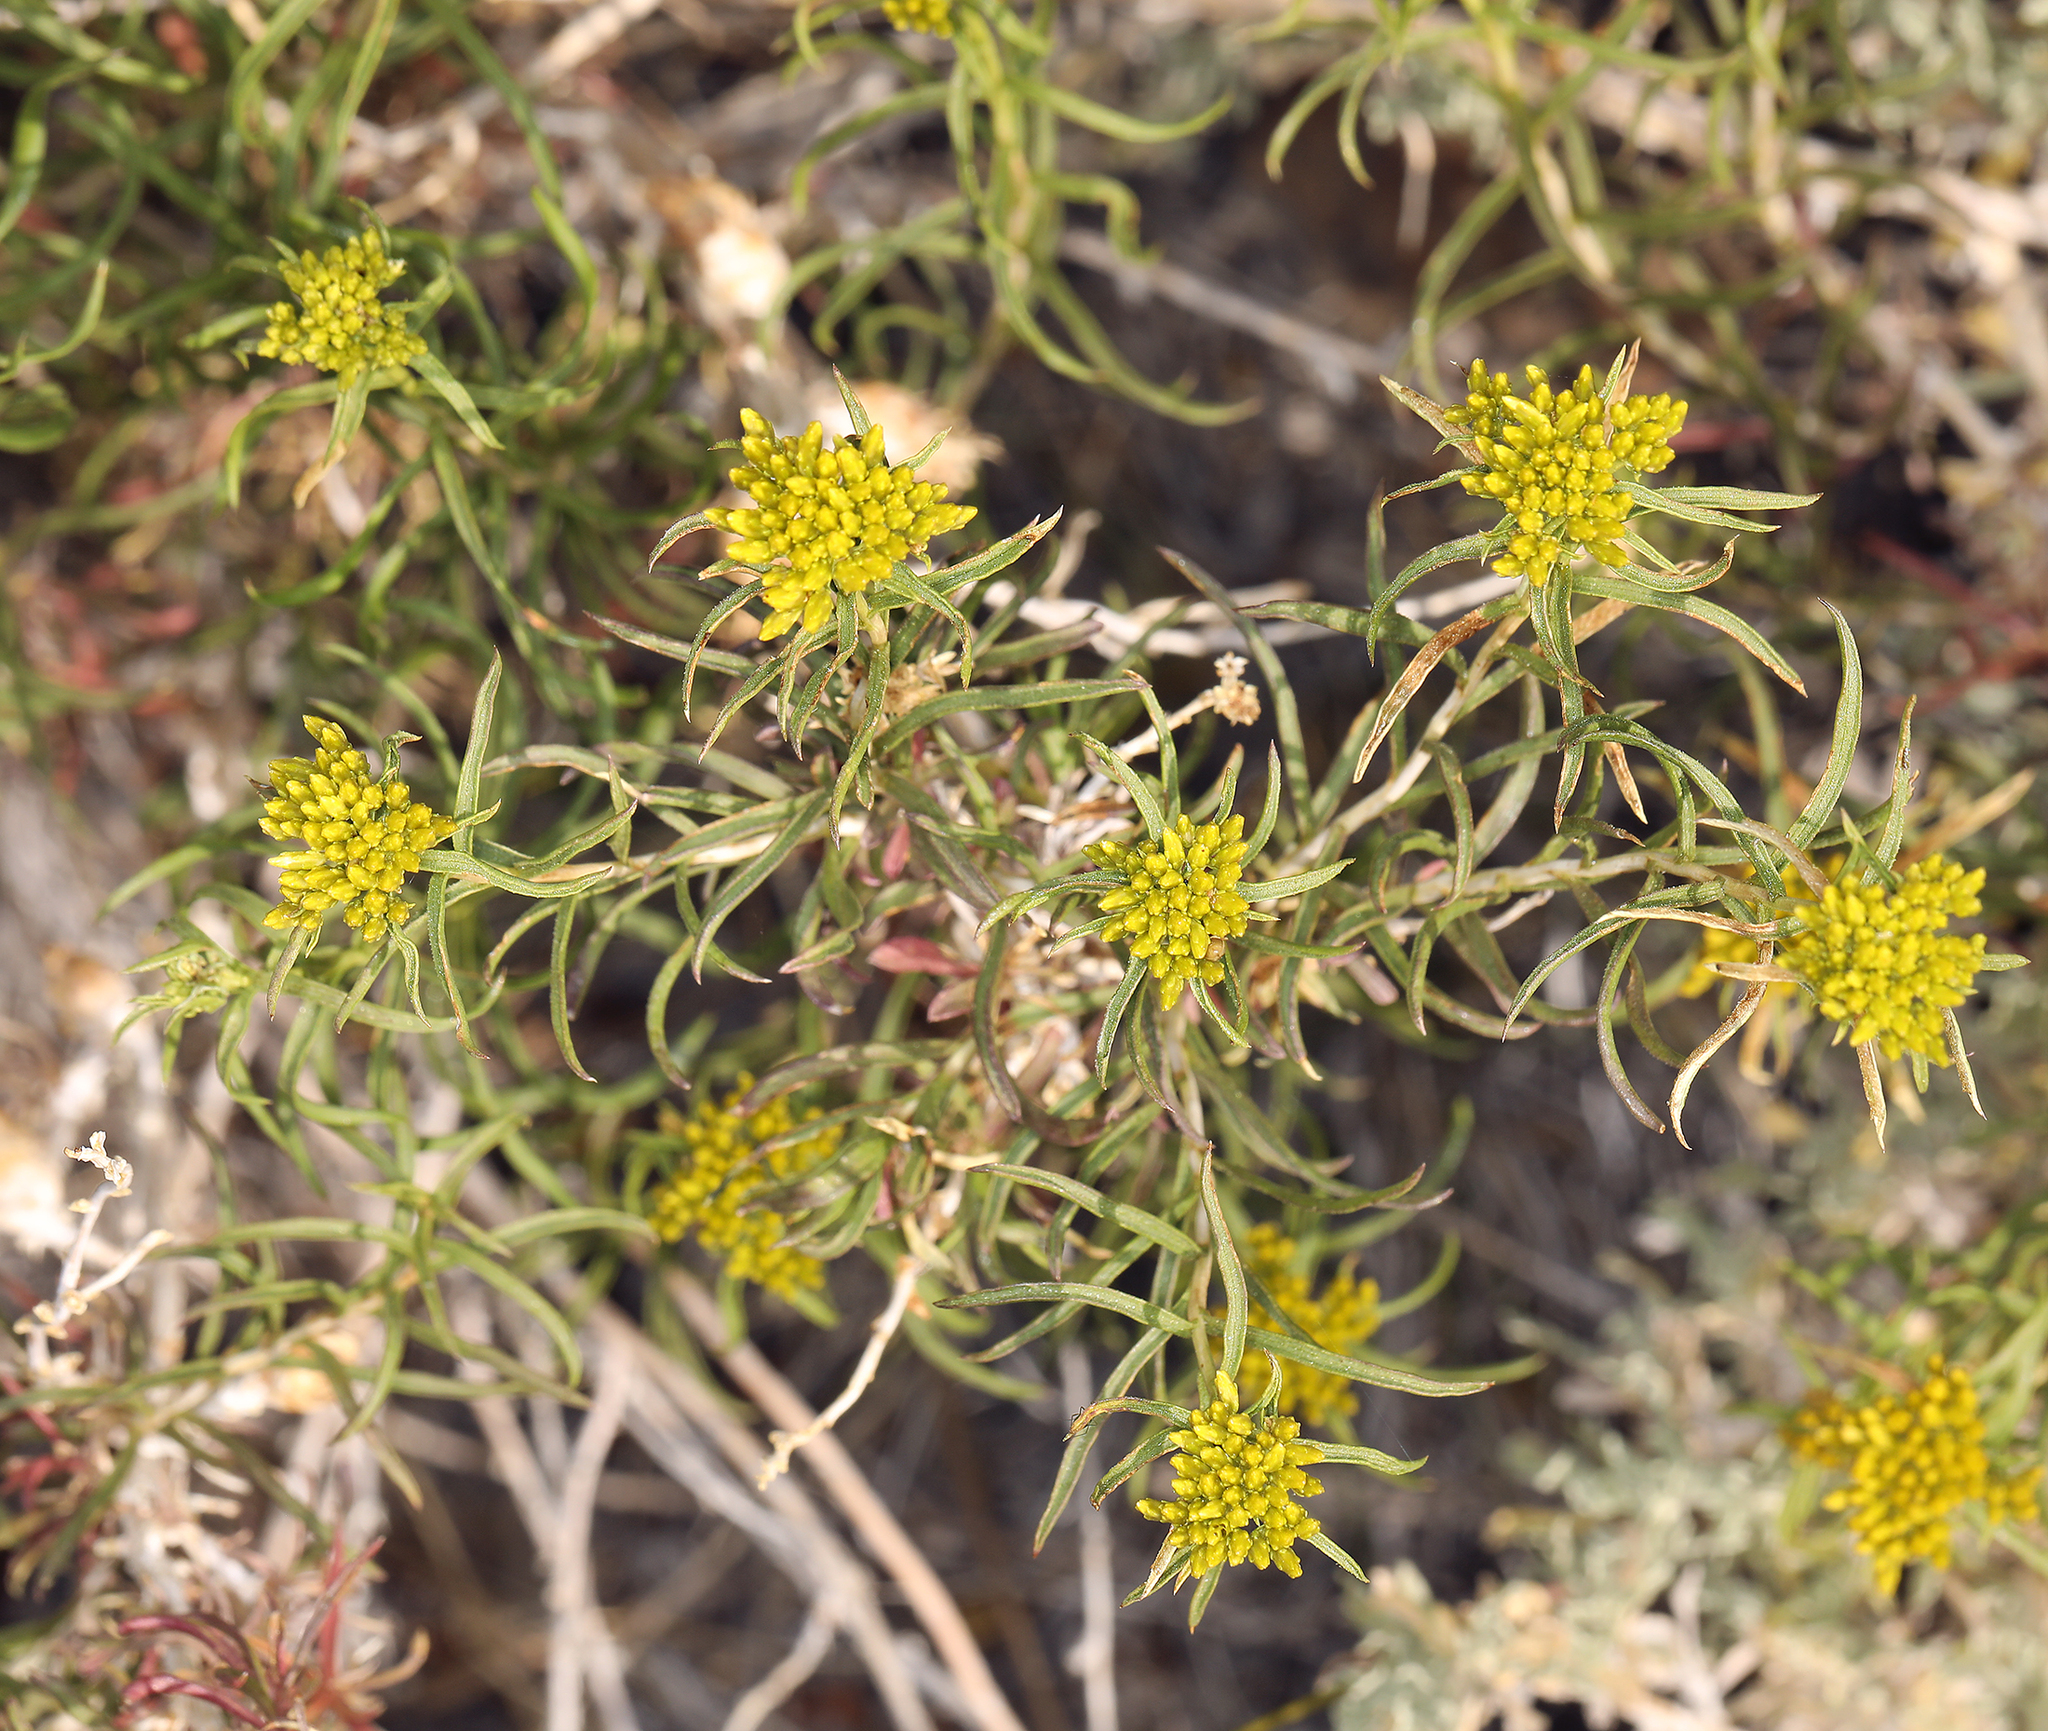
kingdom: Plantae
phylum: Tracheophyta
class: Magnoliopsida
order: Asterales
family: Asteraceae
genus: Chrysothamnus
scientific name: Chrysothamnus viscidiflorus
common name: Yellow rabbitbrush
